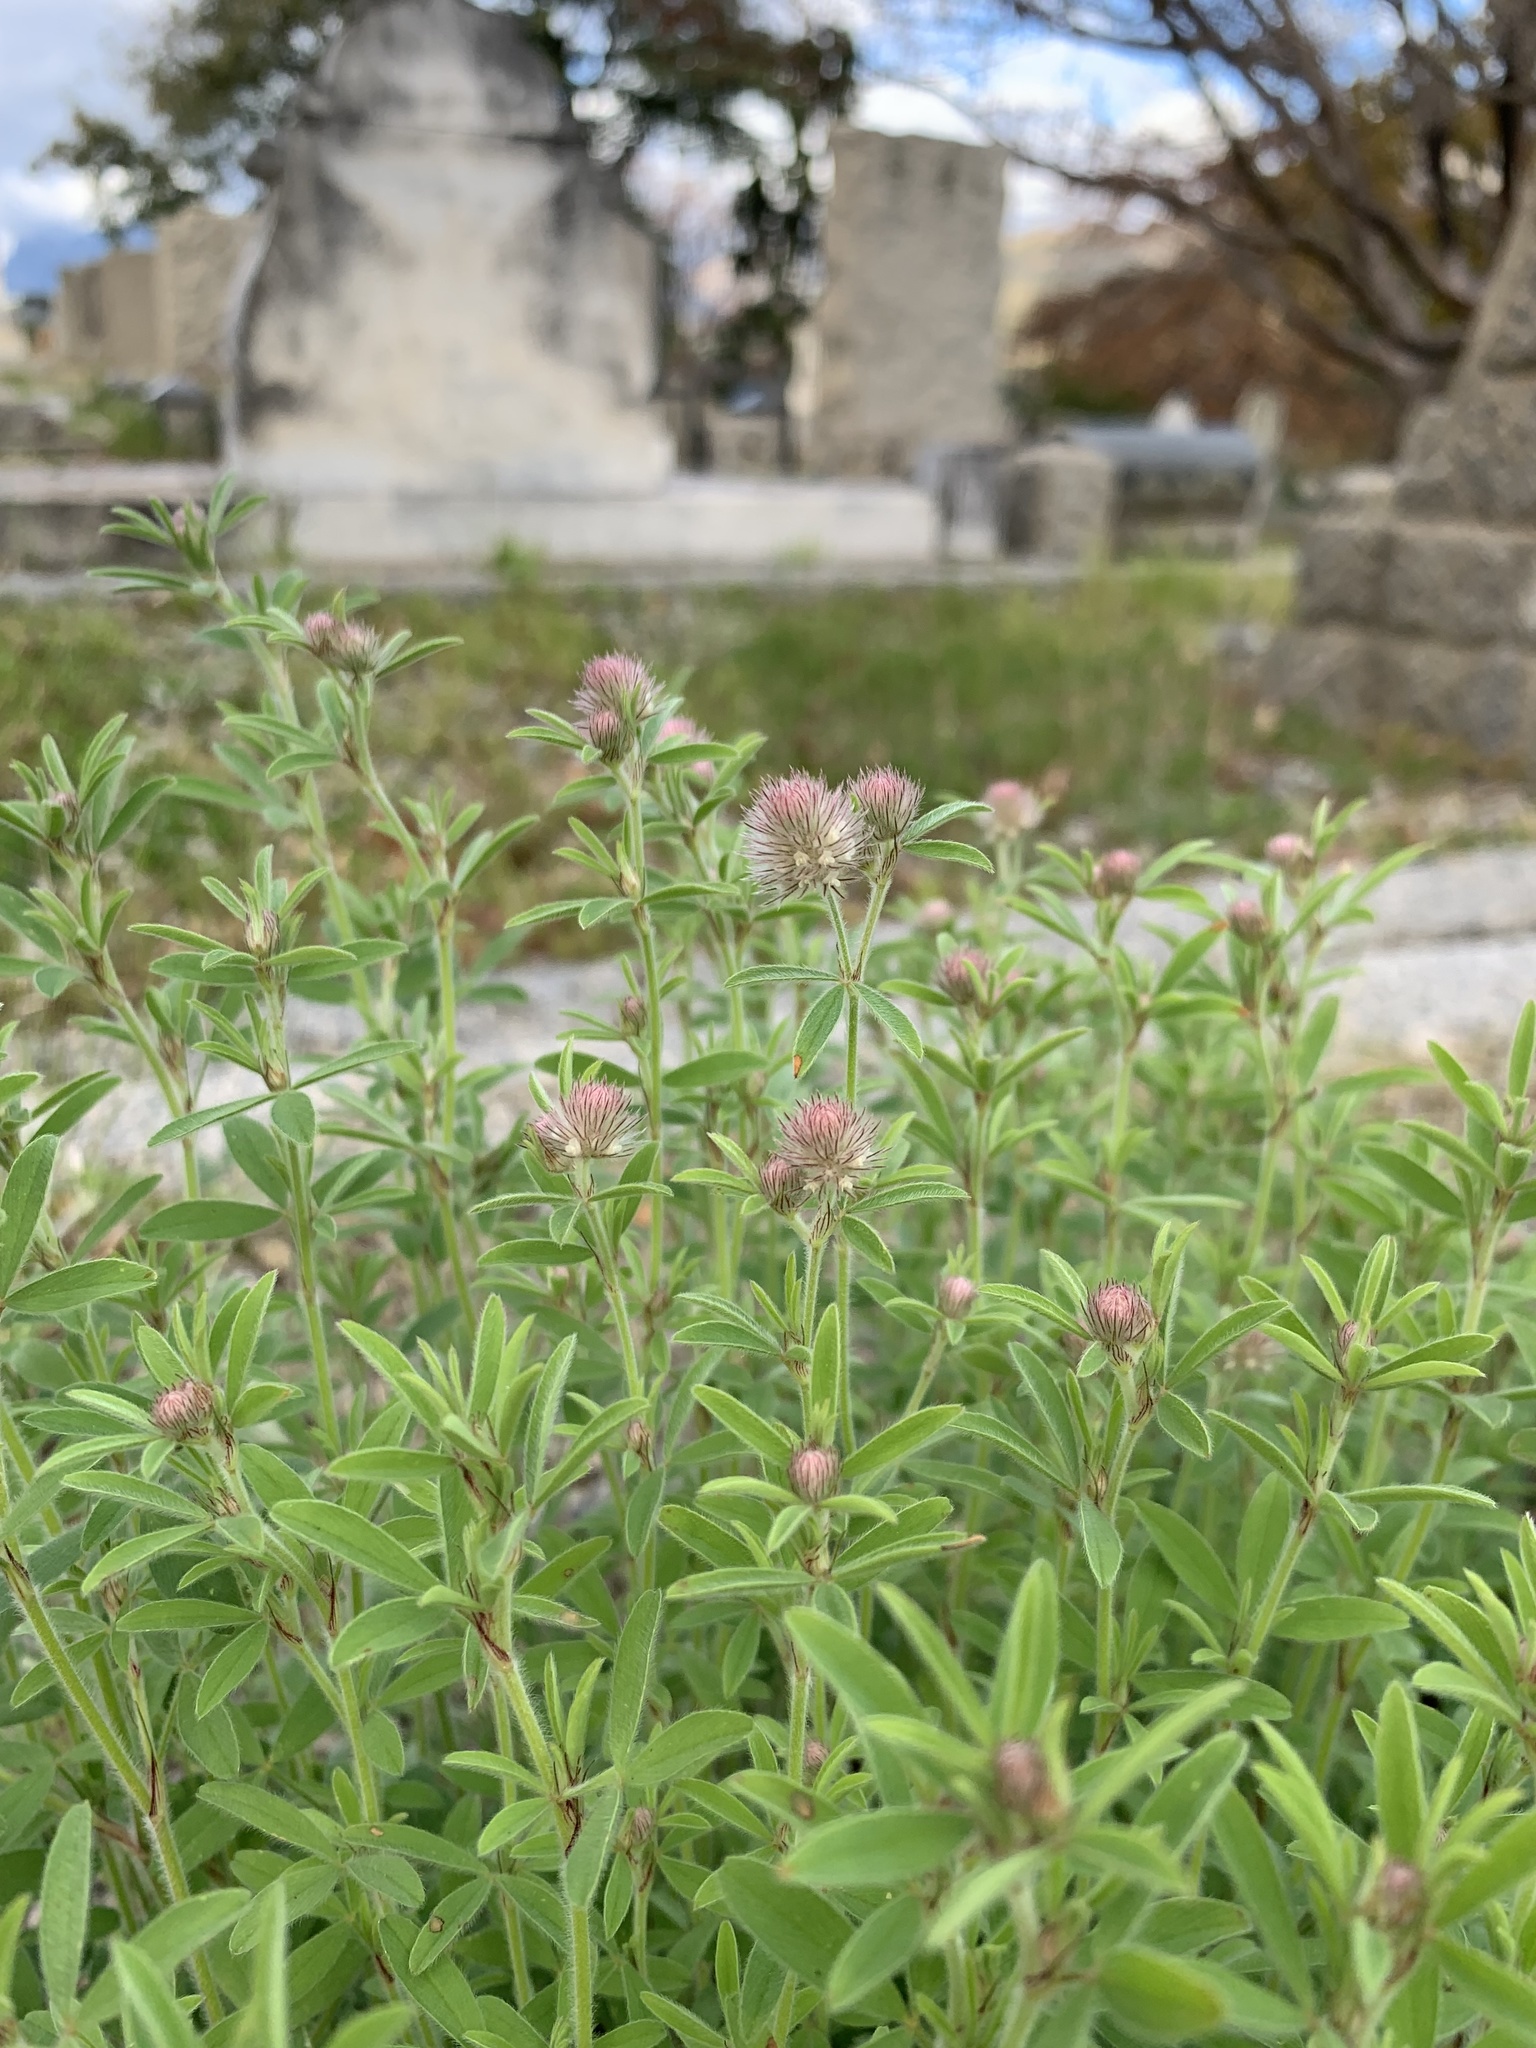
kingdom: Plantae
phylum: Tracheophyta
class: Magnoliopsida
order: Fabales
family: Fabaceae
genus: Trifolium
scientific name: Trifolium arvense
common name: Hare's-foot clover
